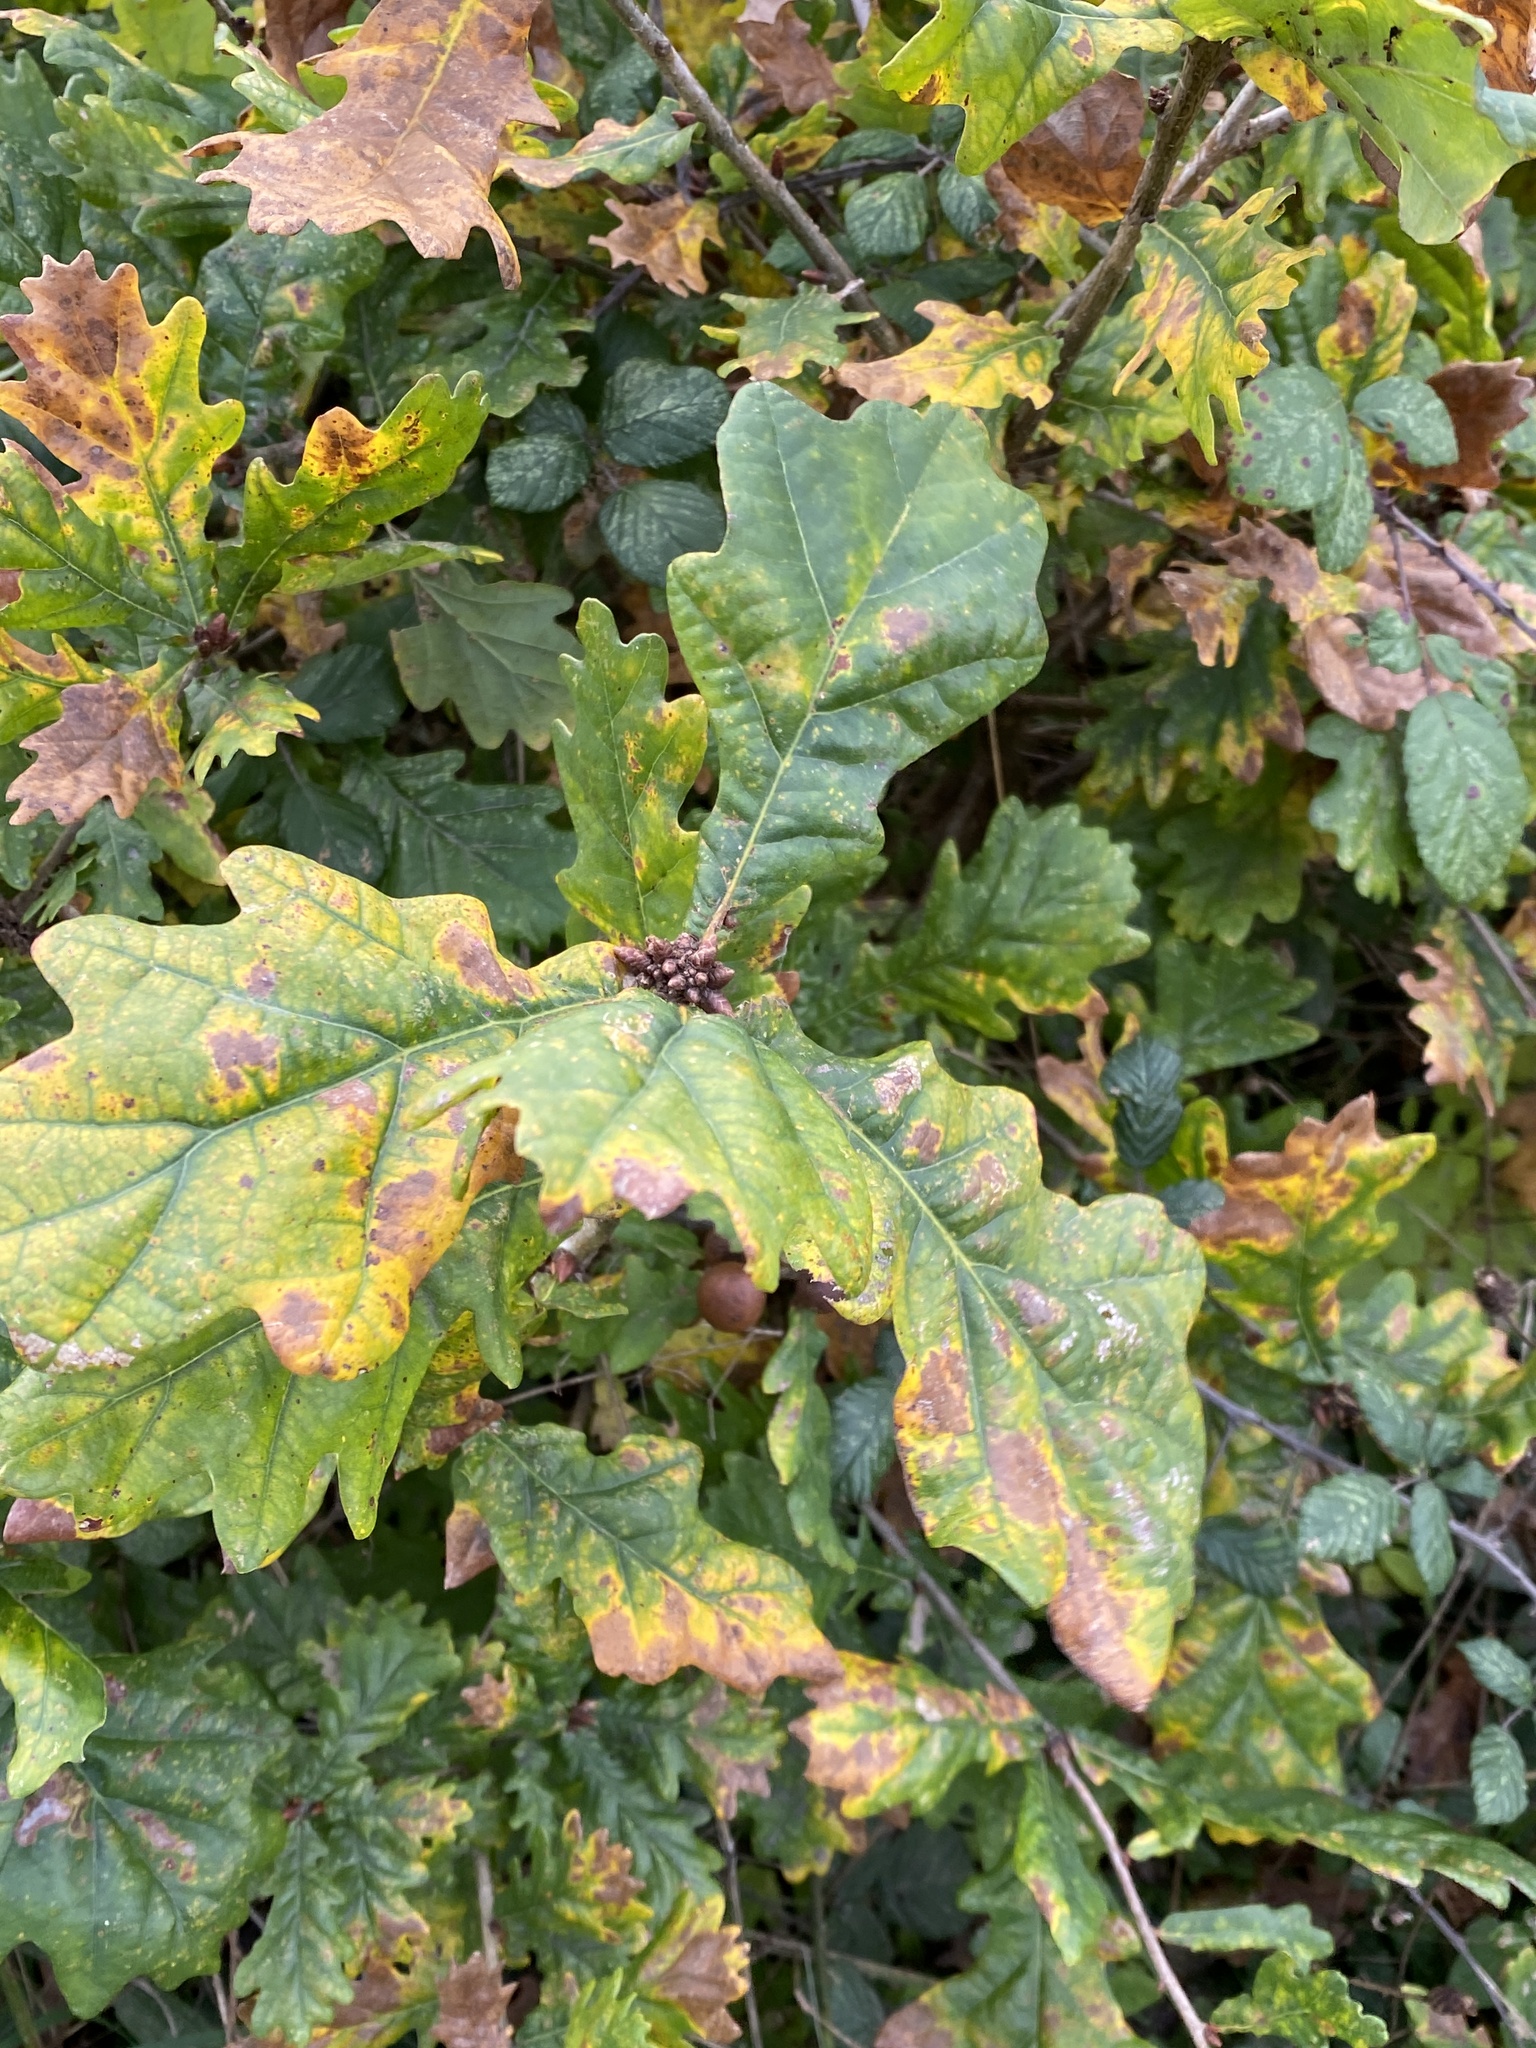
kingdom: Plantae
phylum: Tracheophyta
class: Magnoliopsida
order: Fagales
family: Fagaceae
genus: Quercus
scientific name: Quercus robur
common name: Pedunculate oak
